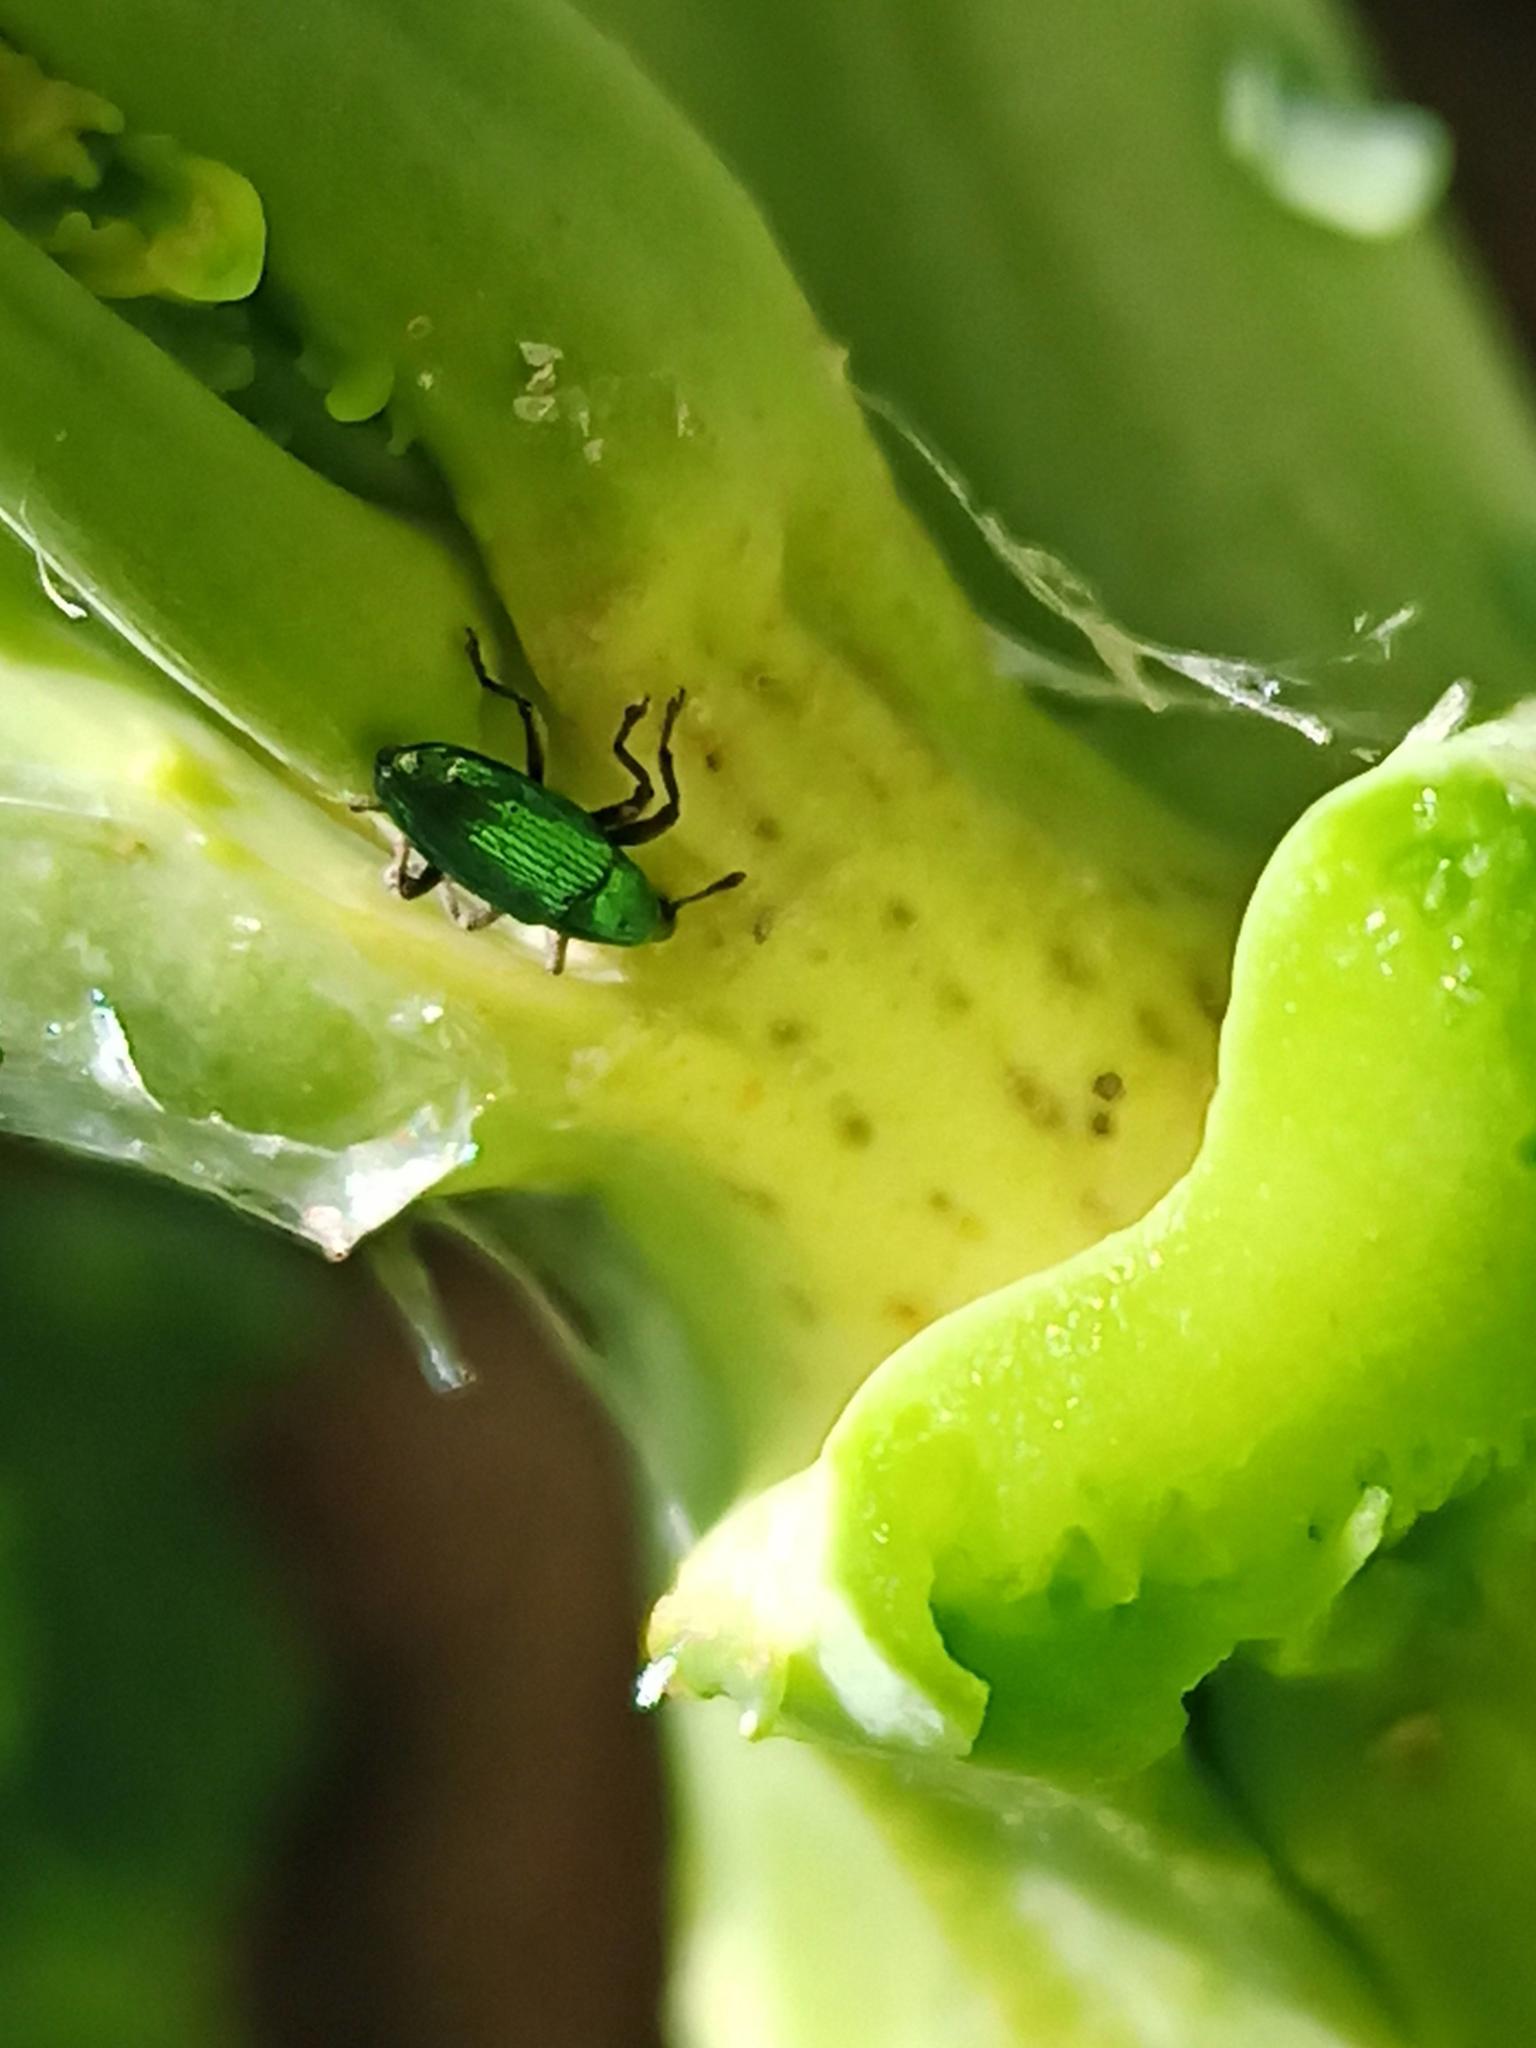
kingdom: Animalia
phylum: Arthropoda
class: Insecta
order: Coleoptera
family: Curculionidae
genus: Aulacobaris
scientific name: Aulacobaris cuprirostris
